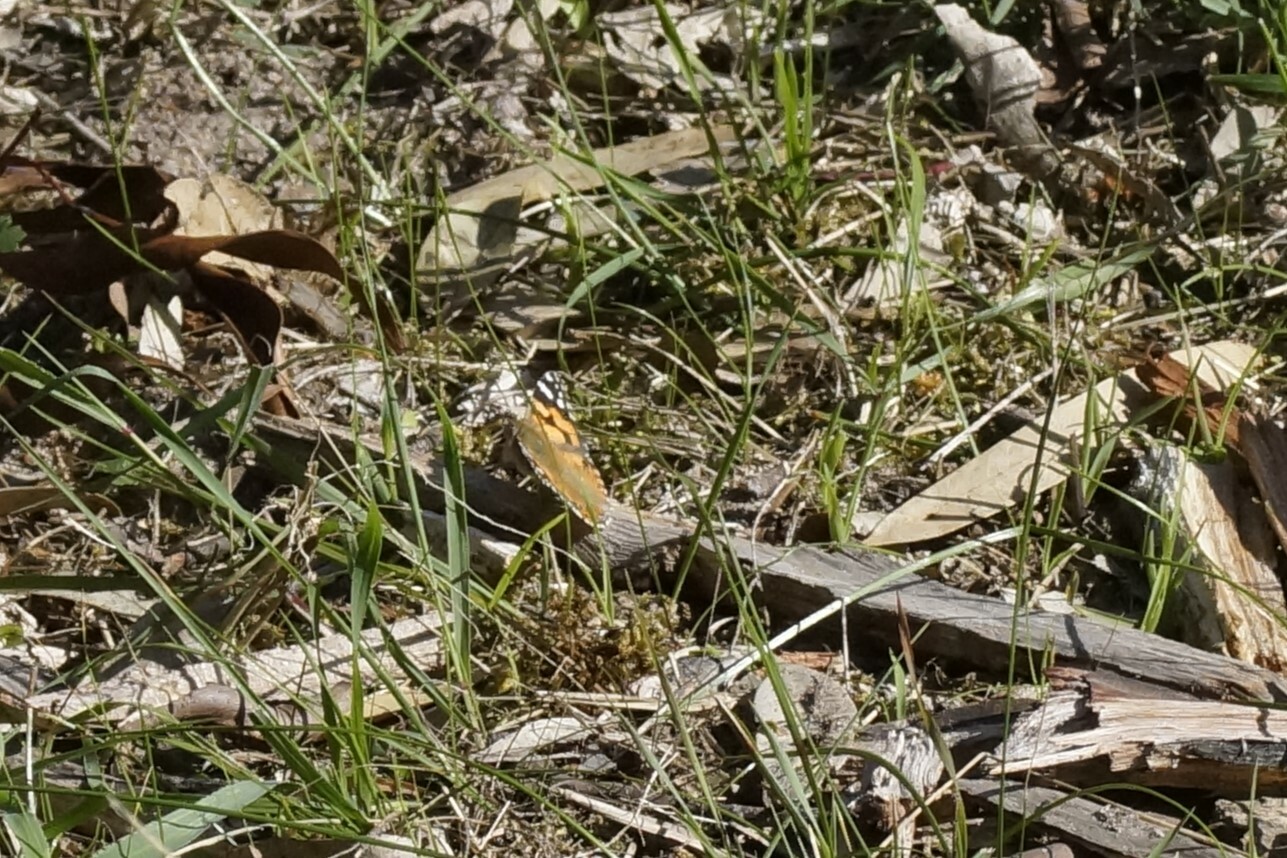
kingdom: Animalia
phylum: Arthropoda
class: Insecta
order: Lepidoptera
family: Nymphalidae
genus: Vanessa
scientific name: Vanessa kershawi
